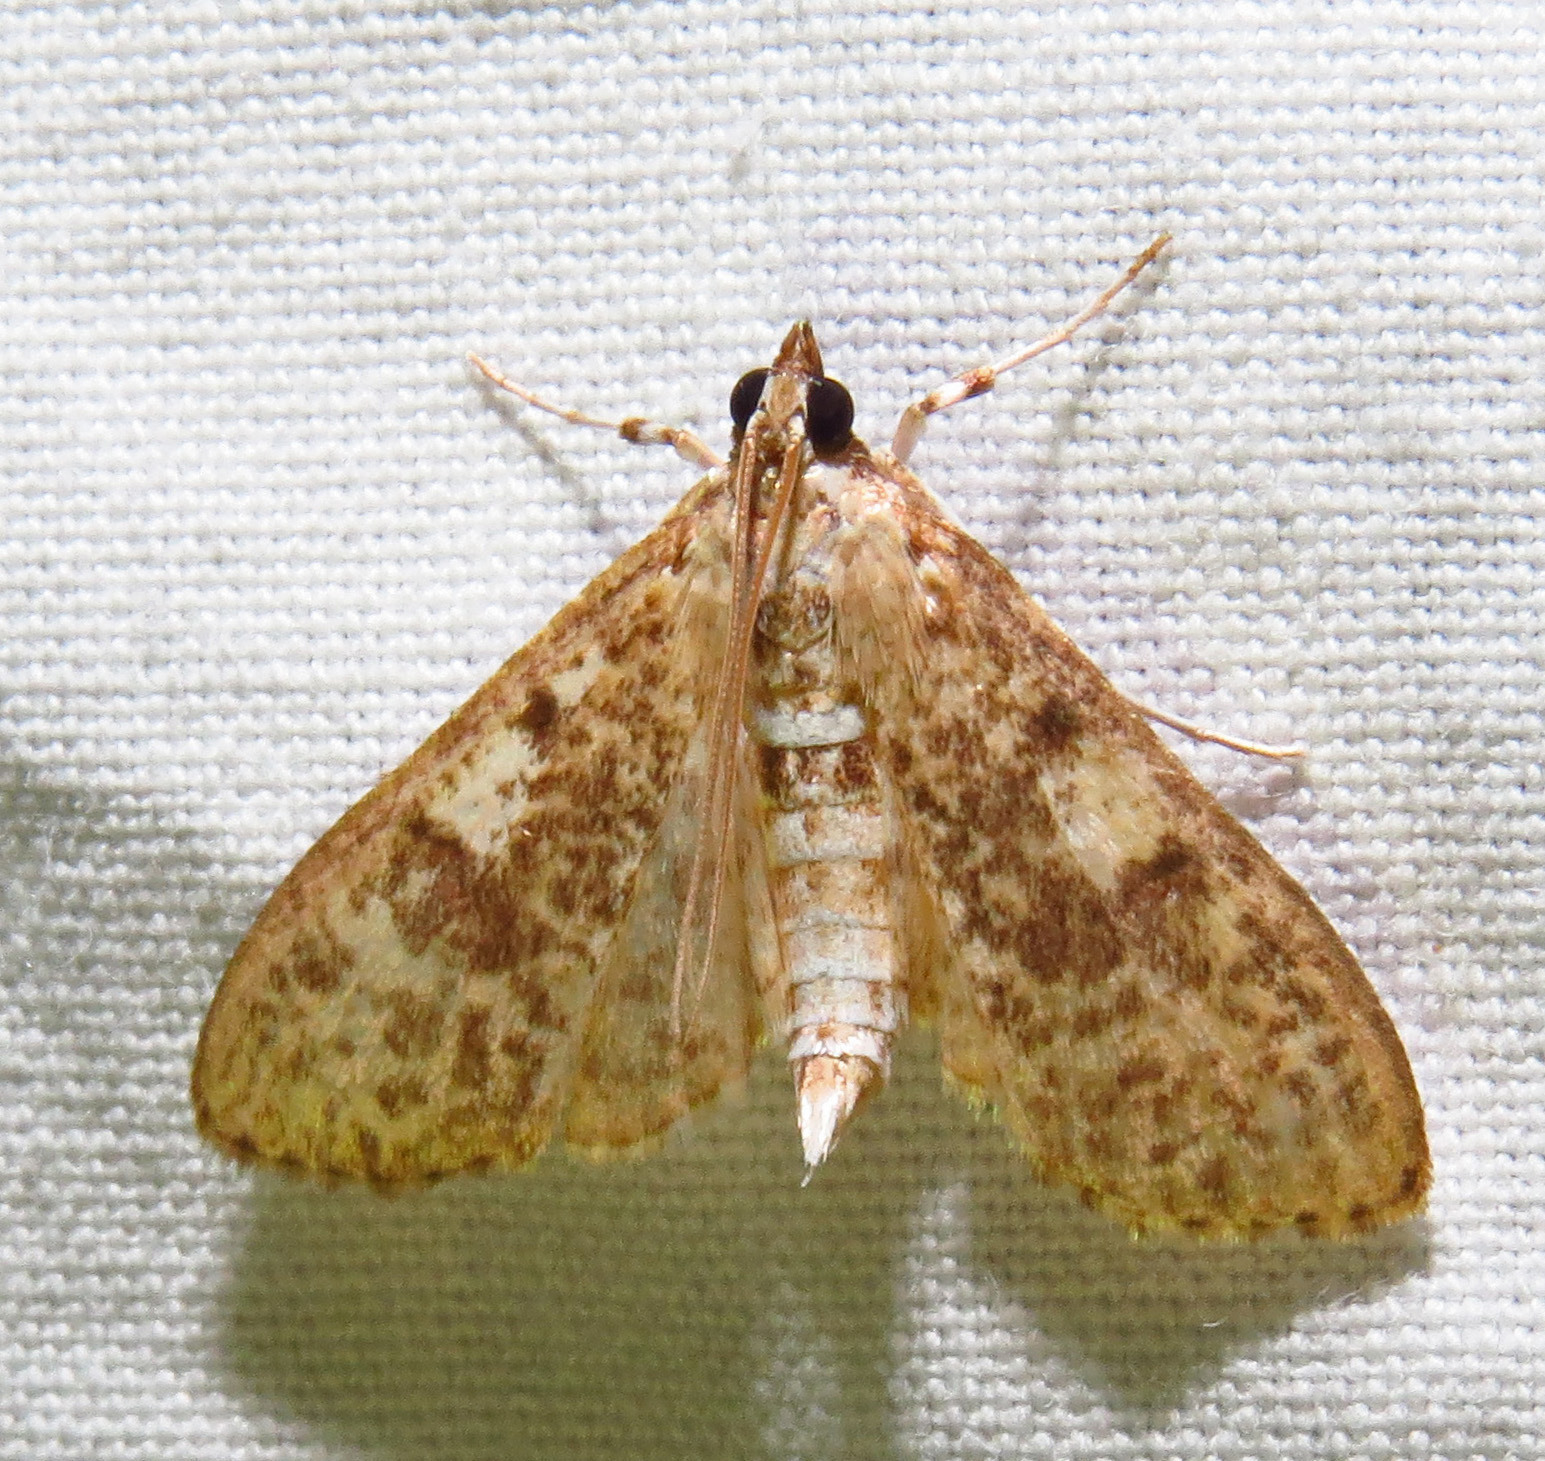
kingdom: Animalia
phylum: Arthropoda
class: Insecta
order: Lepidoptera
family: Crambidae
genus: Palpita
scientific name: Palpita freemanalis
